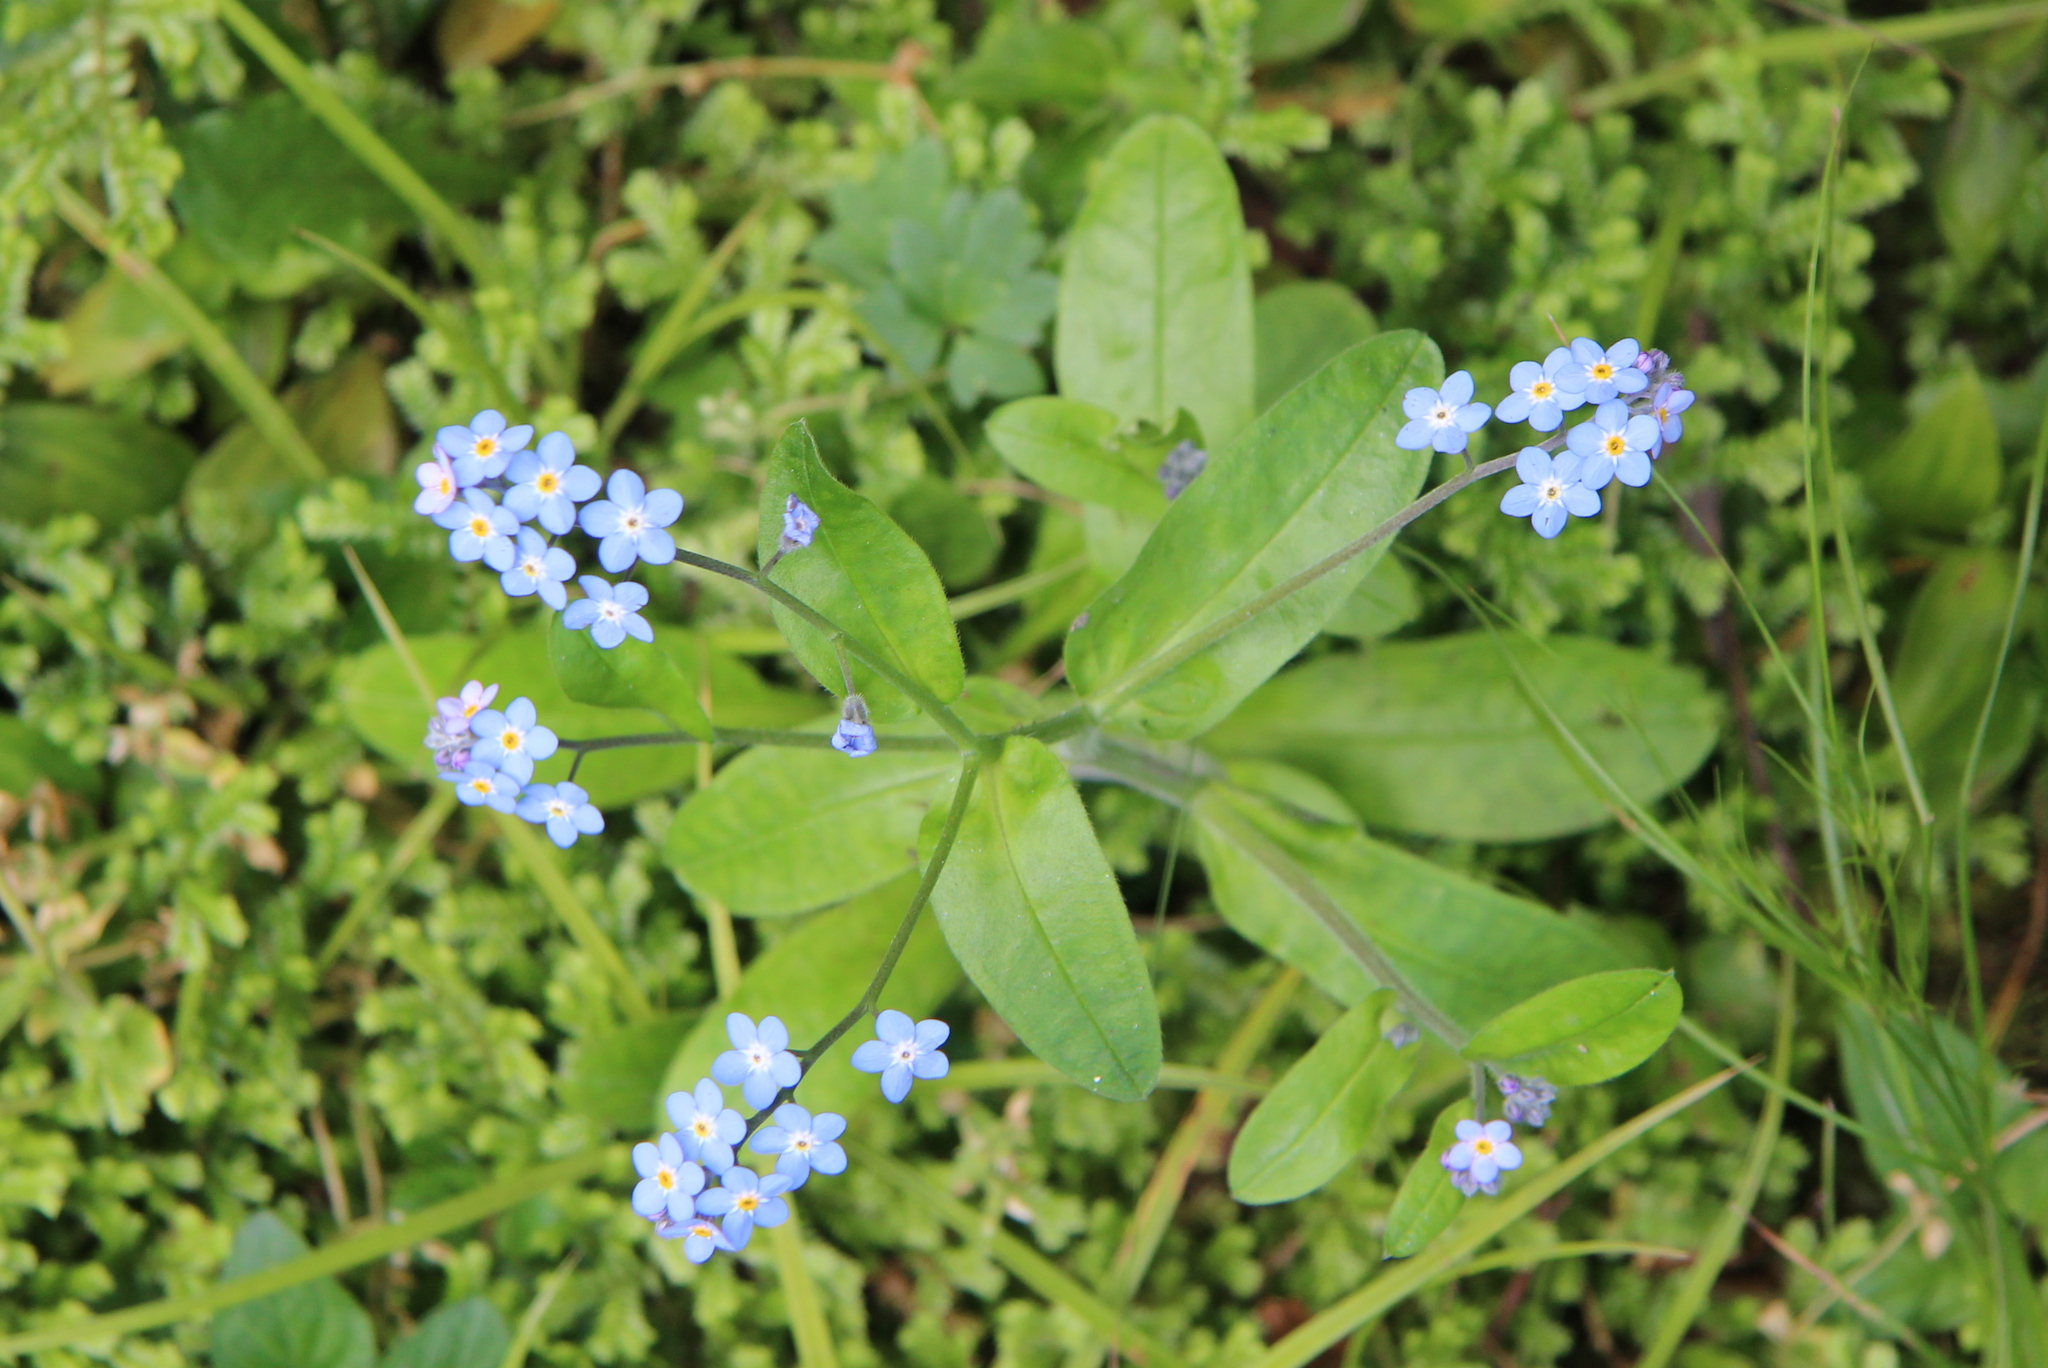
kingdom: Plantae
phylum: Tracheophyta
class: Magnoliopsida
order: Boraginales
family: Boraginaceae
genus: Myosotis
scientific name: Myosotis sylvatica
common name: Wood forget-me-not
